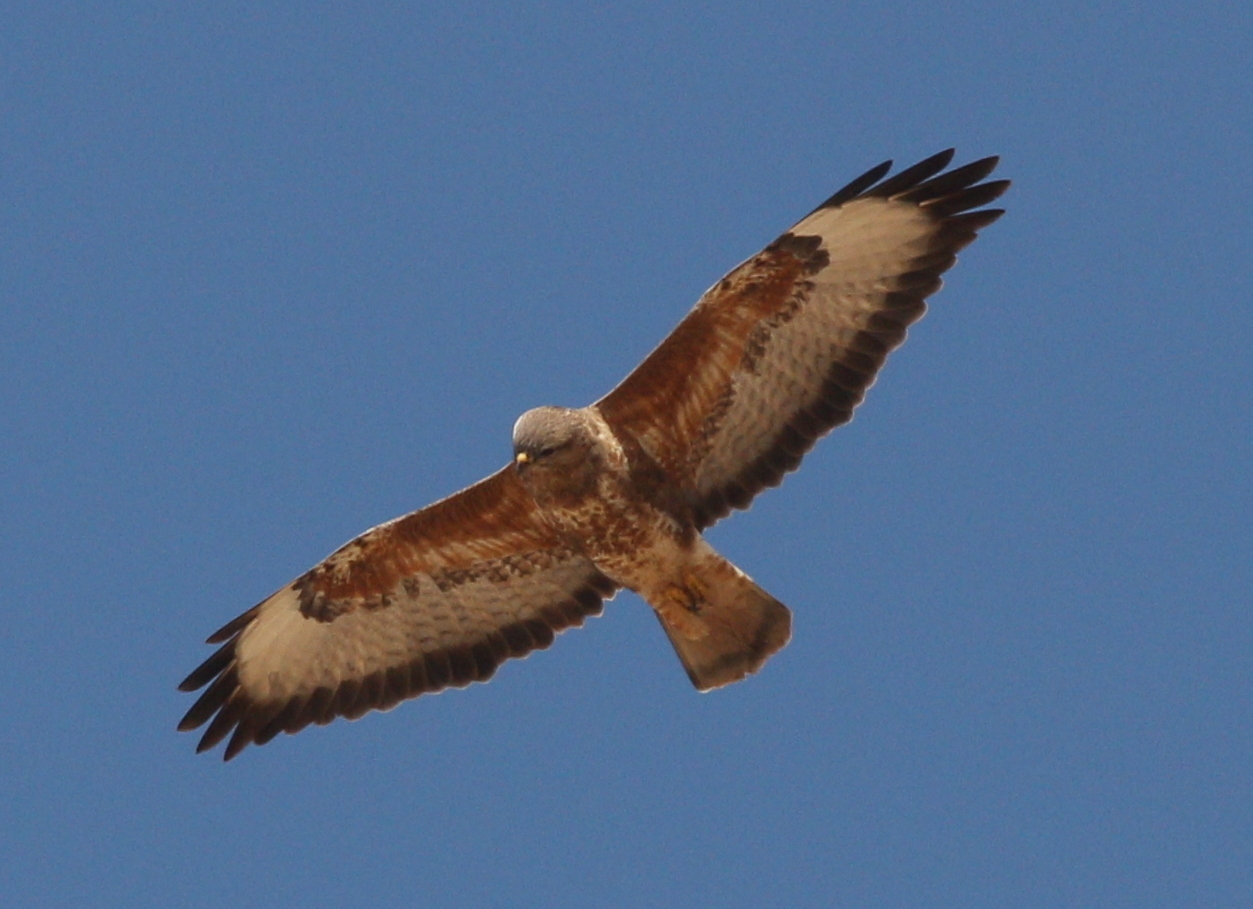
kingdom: Animalia
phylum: Chordata
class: Aves
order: Accipitriformes
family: Accipitridae
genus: Buteo
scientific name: Buteo buteo
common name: Common buzzard
